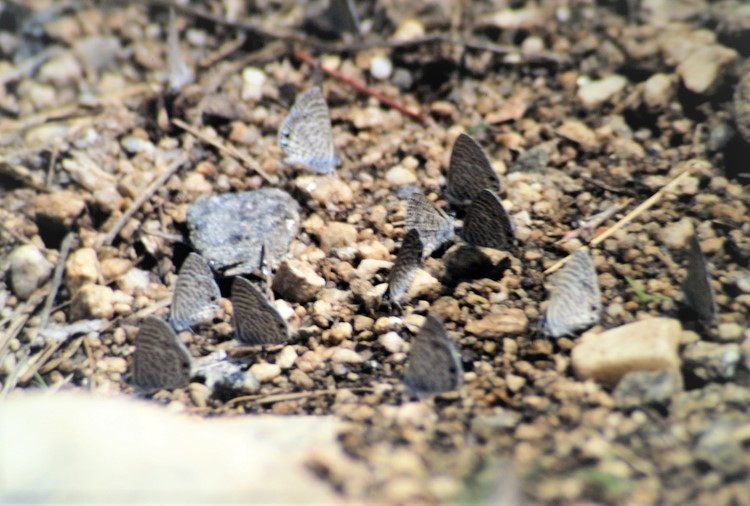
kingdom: Animalia
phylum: Arthropoda
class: Insecta
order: Lepidoptera
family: Lycaenidae
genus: Leptotes
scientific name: Leptotes marina
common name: Marine blue
